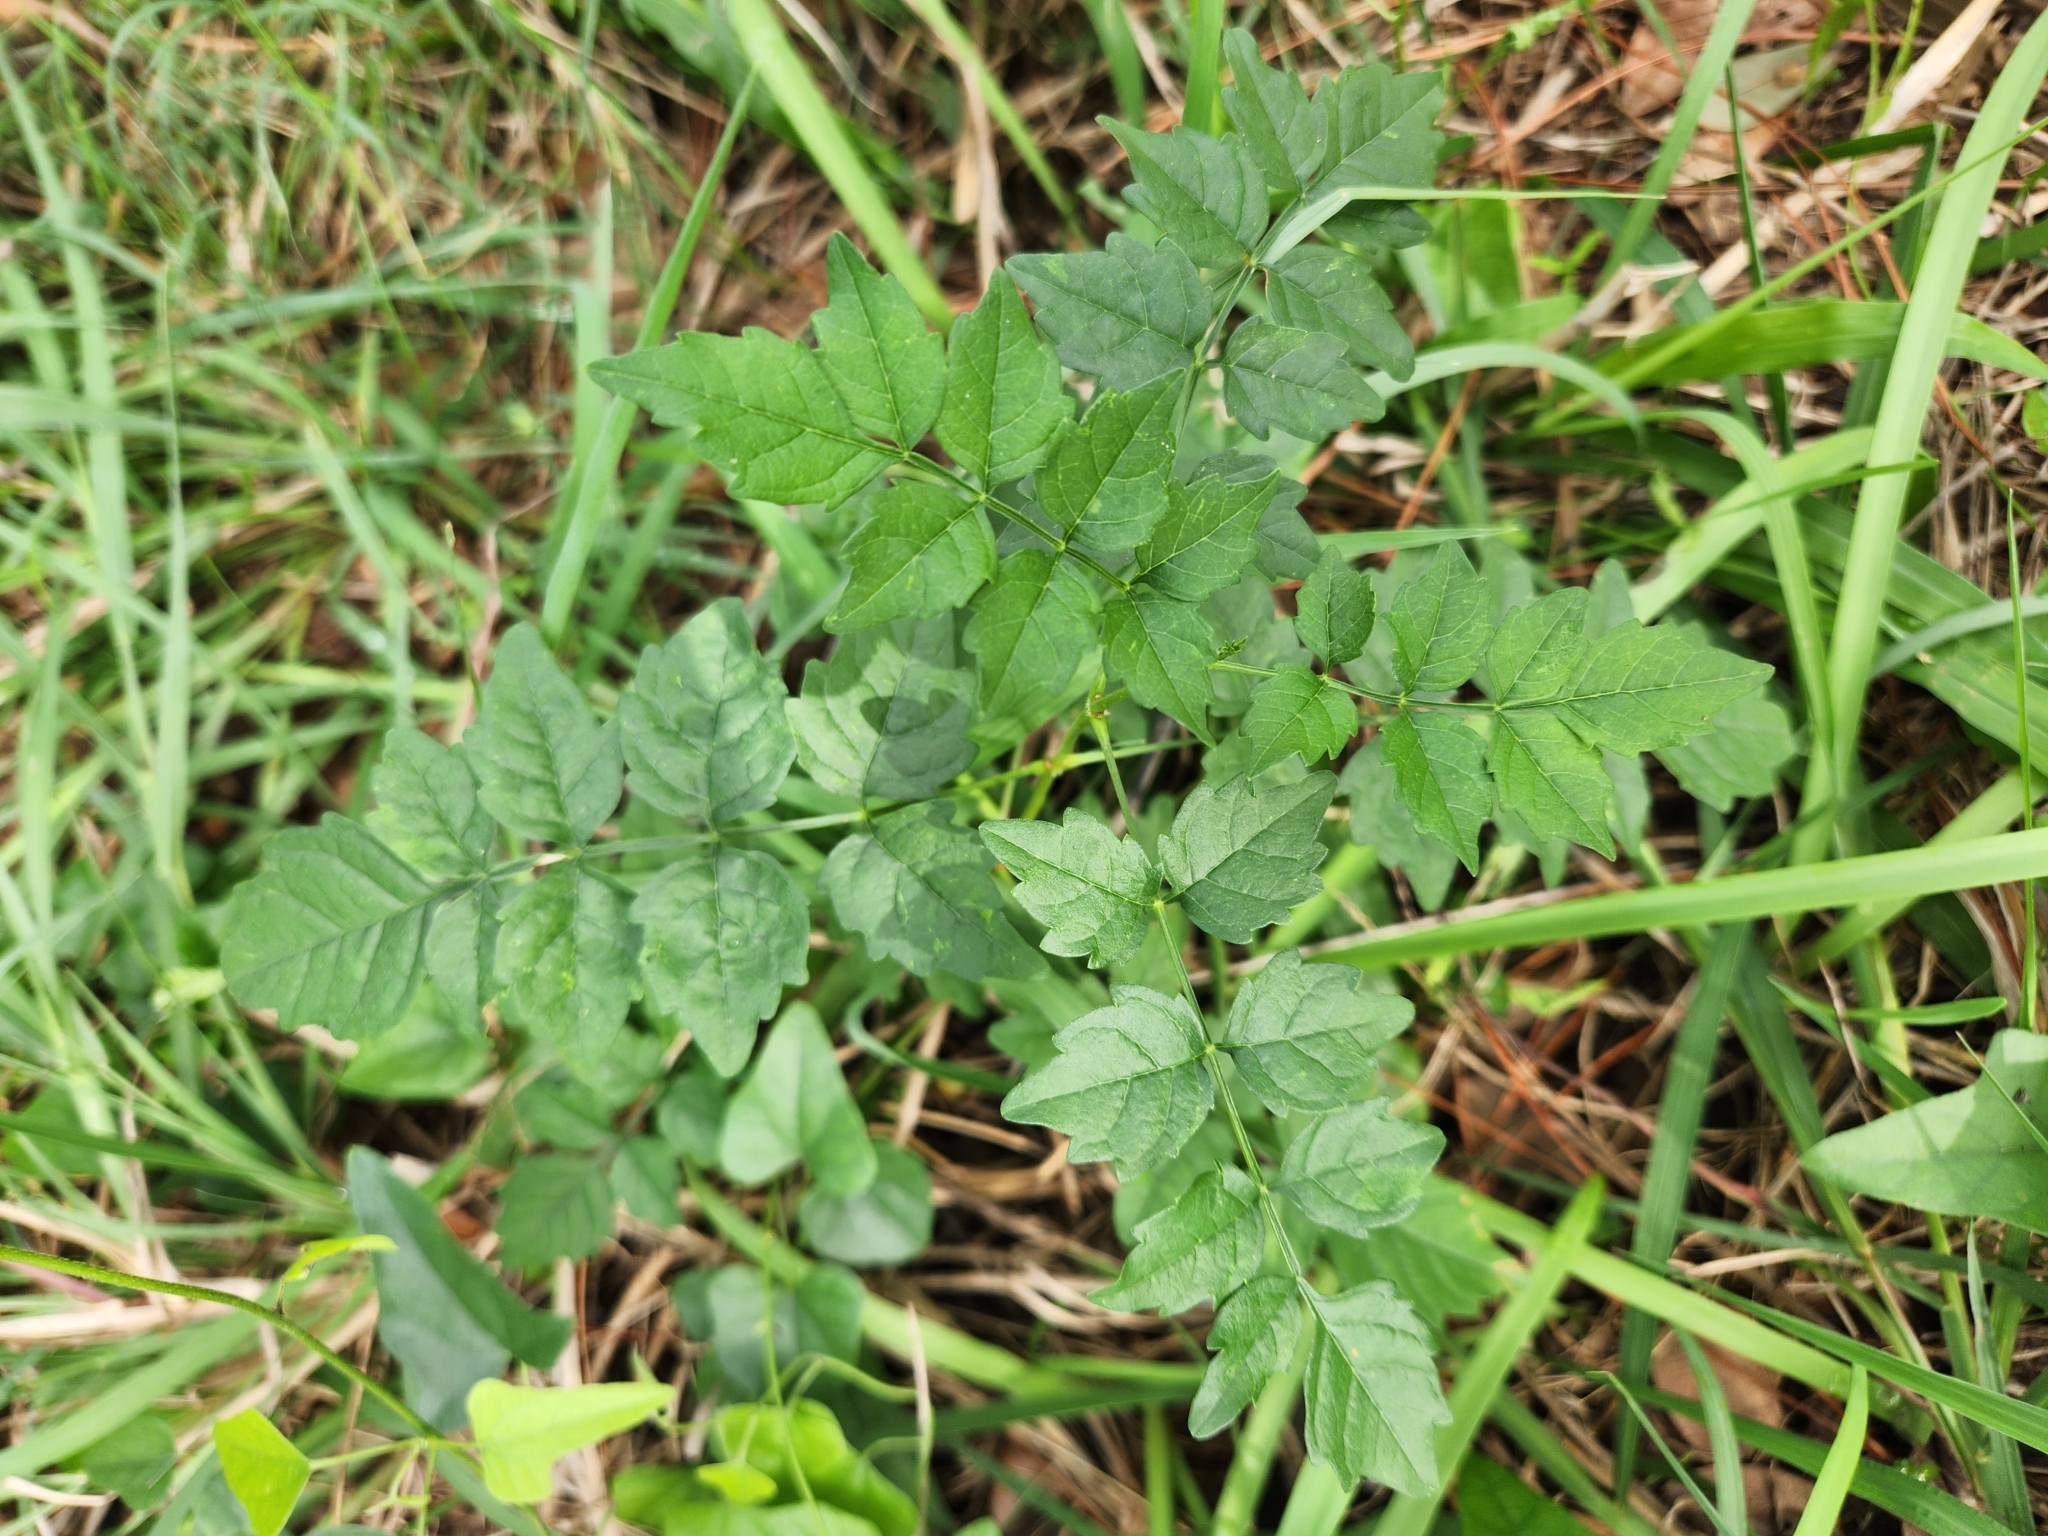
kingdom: Plantae
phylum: Tracheophyta
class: Magnoliopsida
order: Lamiales
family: Bignoniaceae
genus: Campsis
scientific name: Campsis radicans
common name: Trumpet-creeper
